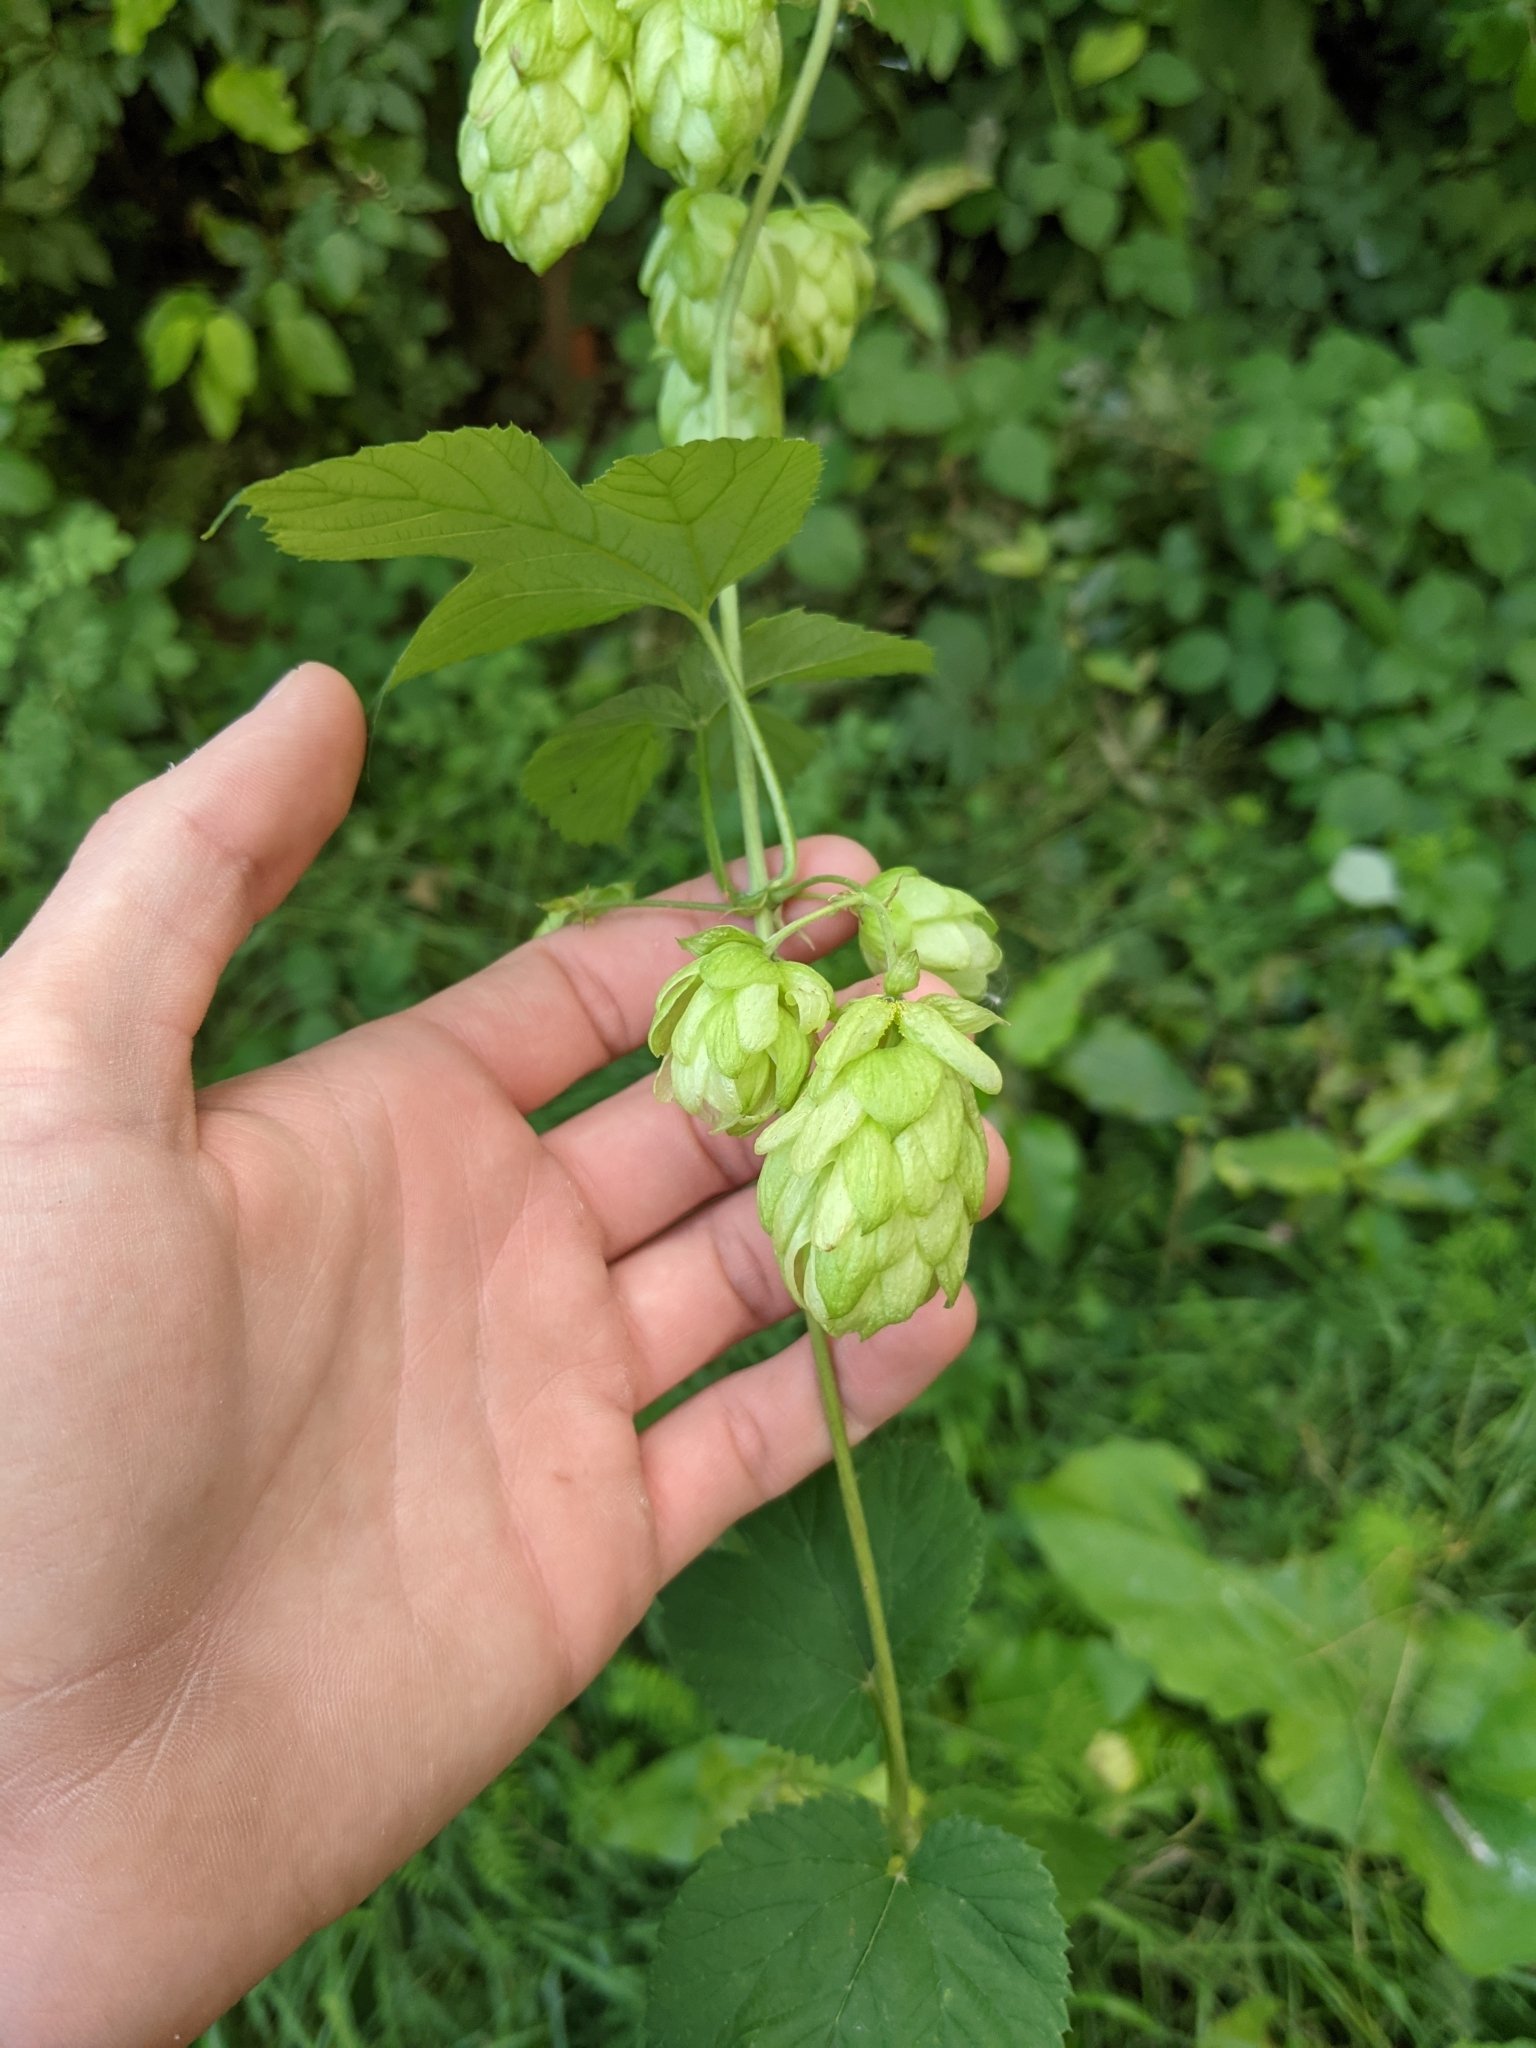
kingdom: Plantae
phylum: Tracheophyta
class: Magnoliopsida
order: Rosales
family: Cannabaceae
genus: Humulus
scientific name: Humulus lupulus
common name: Hop
